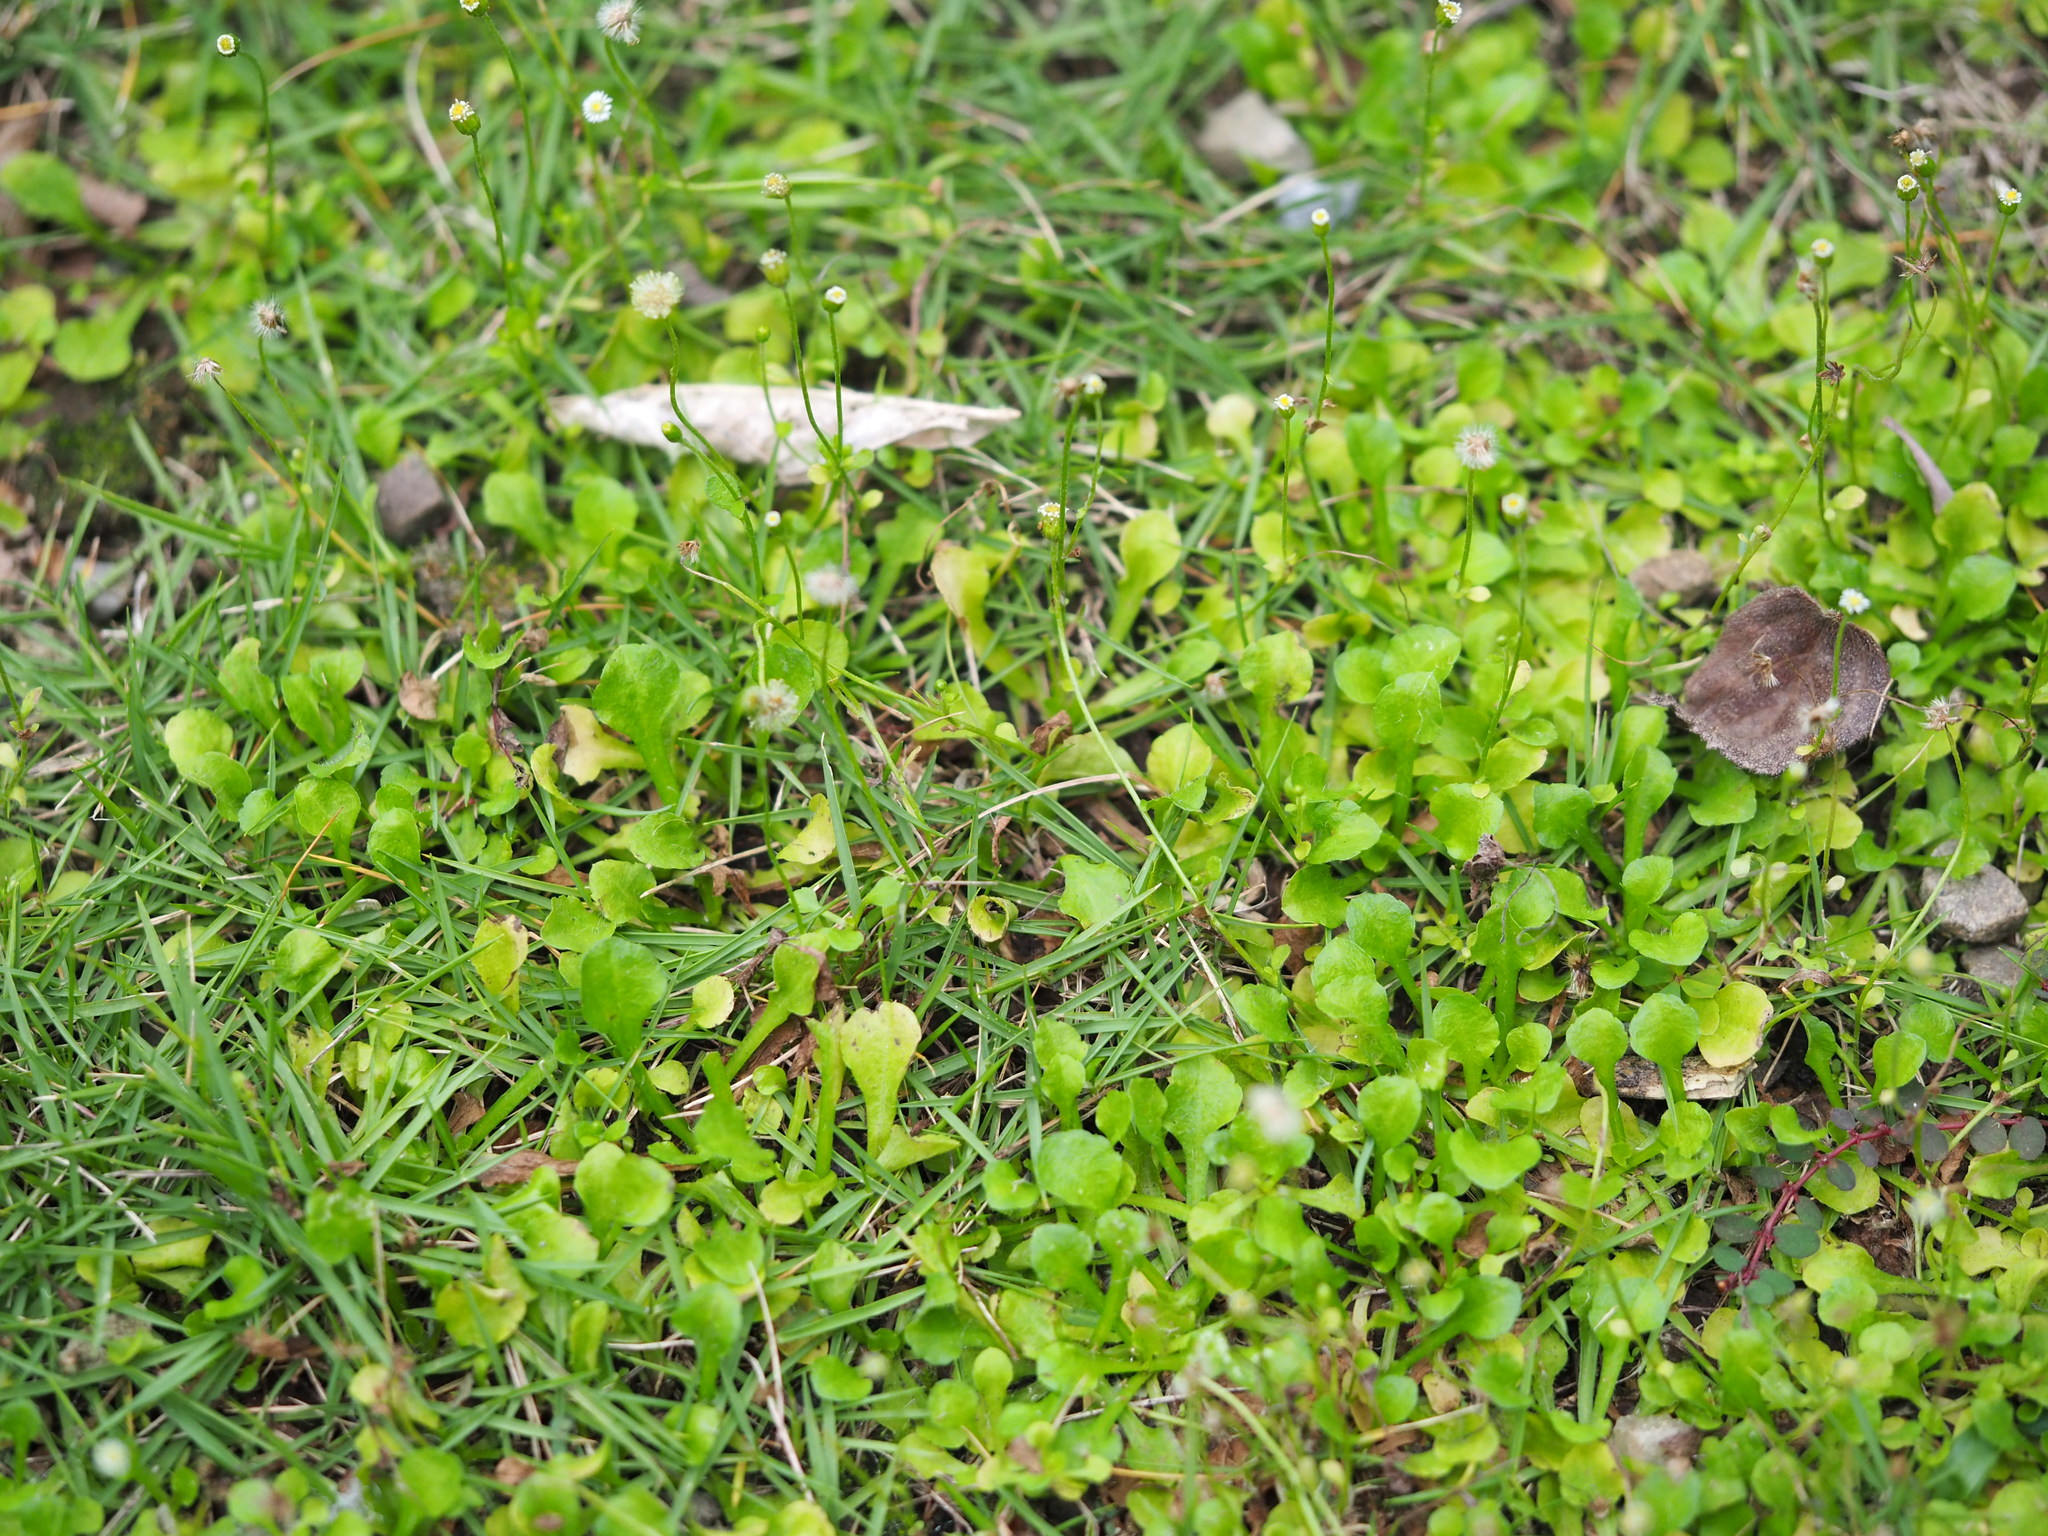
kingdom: Plantae
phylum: Tracheophyta
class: Magnoliopsida
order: Asterales
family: Asteraceae
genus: Erigeron
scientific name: Erigeron bellioides
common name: Bellorita
